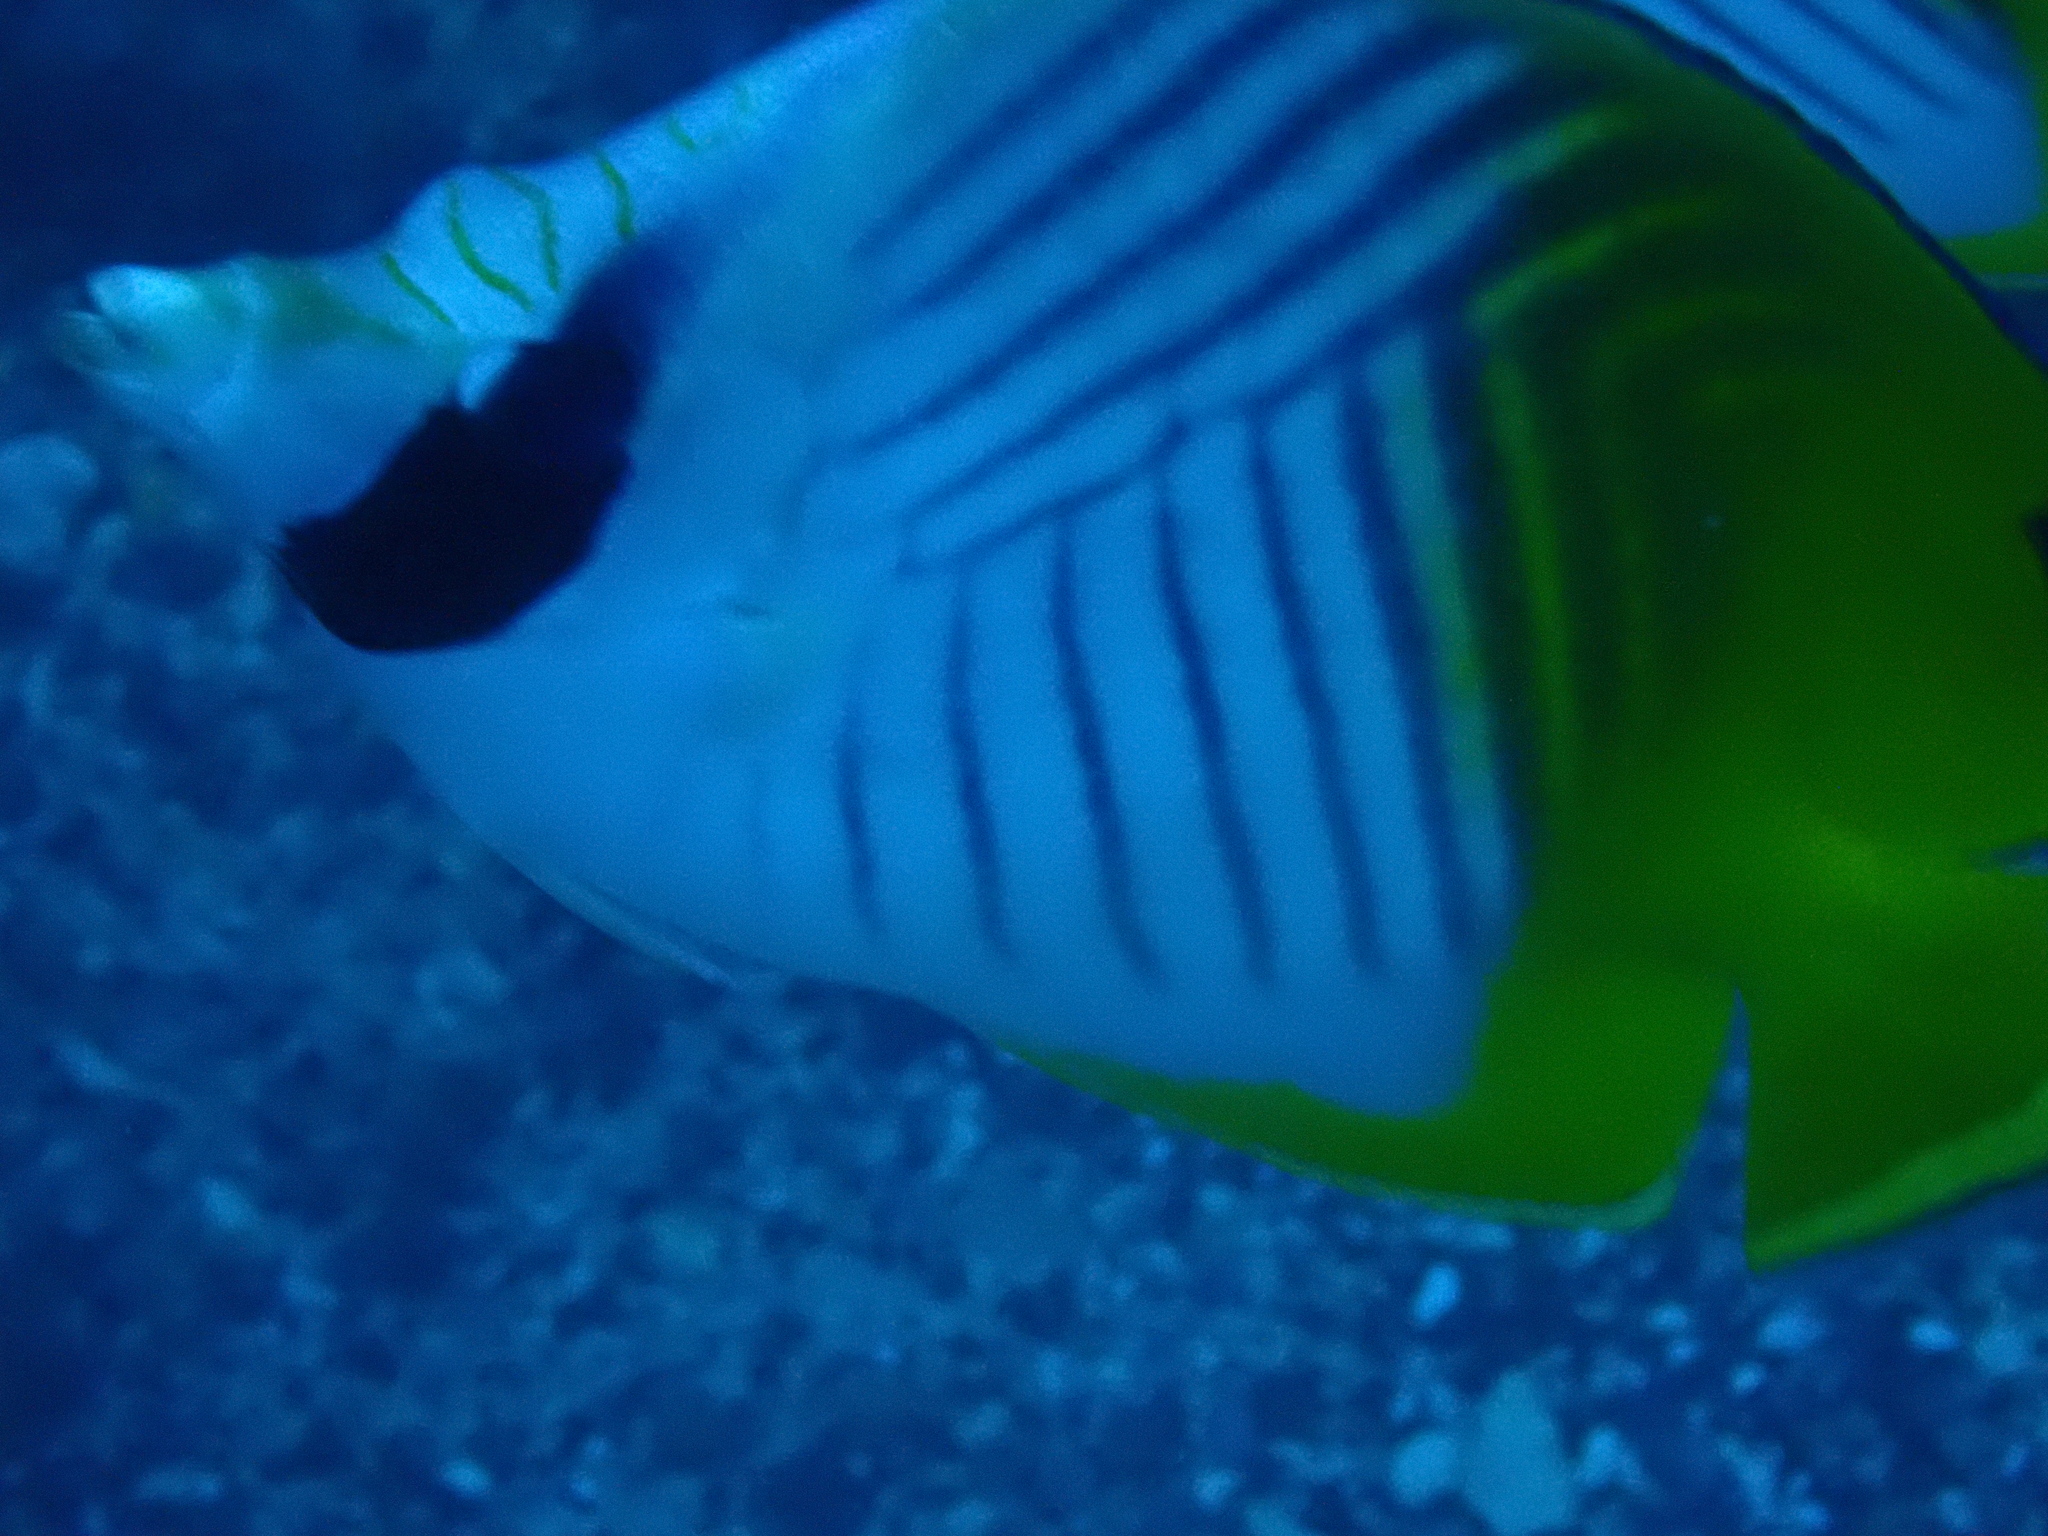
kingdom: Animalia
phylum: Chordata
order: Perciformes
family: Chaetodontidae
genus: Chaetodon
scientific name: Chaetodon auriga
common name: Threadfin butterflyfish
